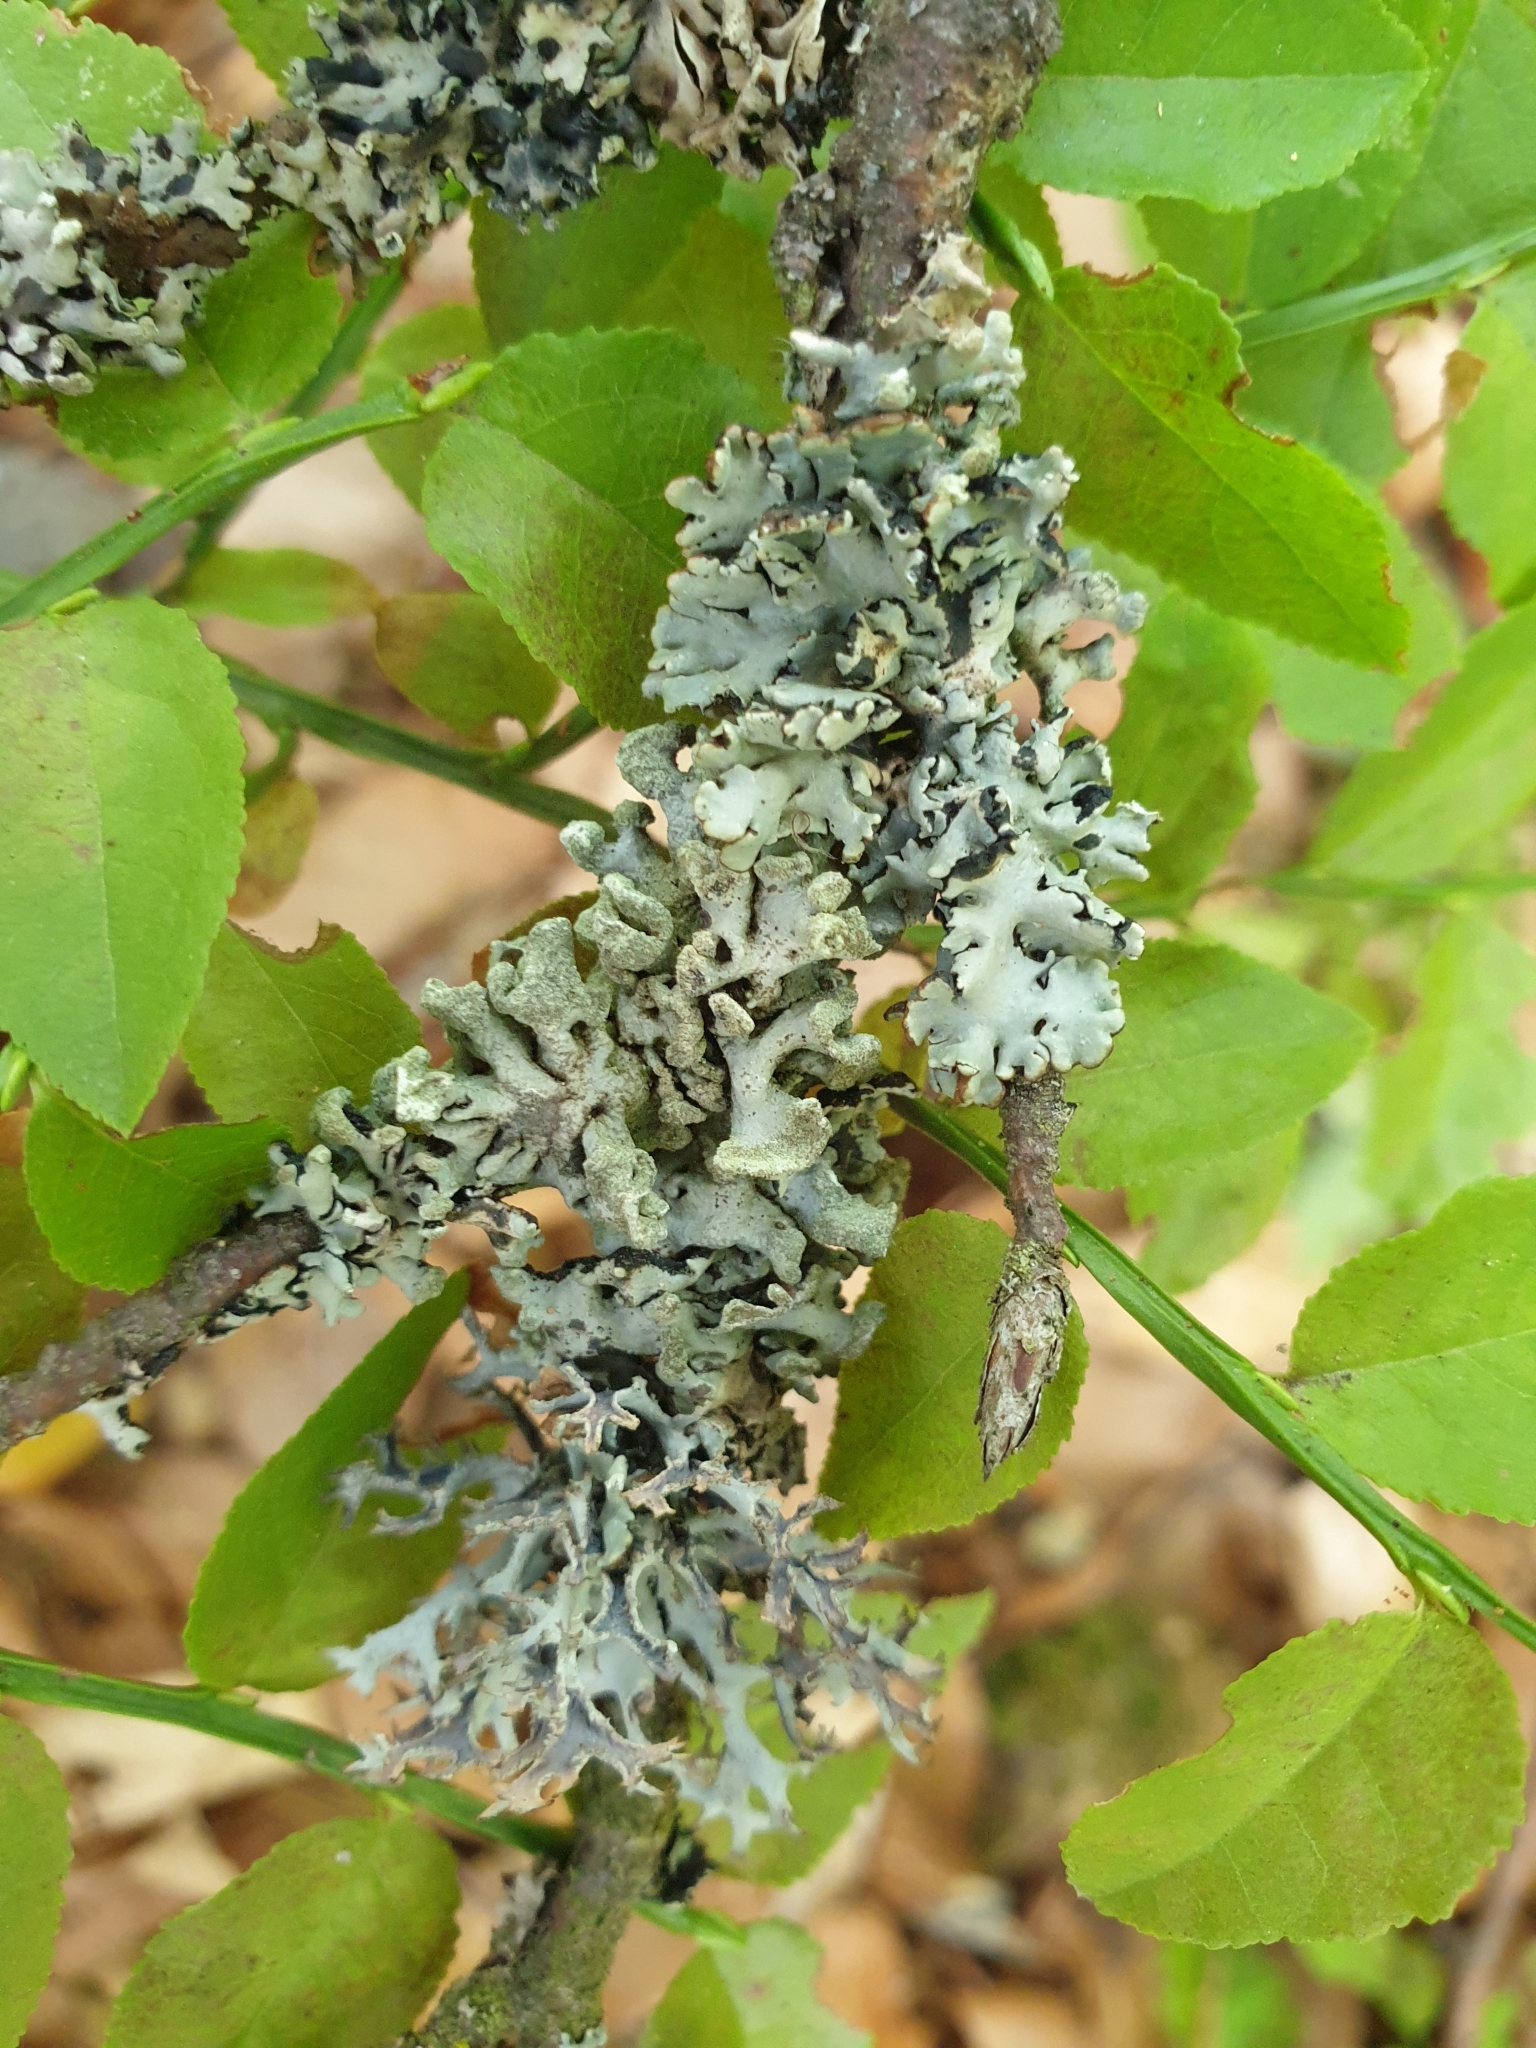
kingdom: Fungi
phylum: Ascomycota
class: Lecanoromycetes
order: Lecanorales
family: Parmeliaceae
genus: Hypogymnia
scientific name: Hypogymnia physodes
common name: Dark crottle
